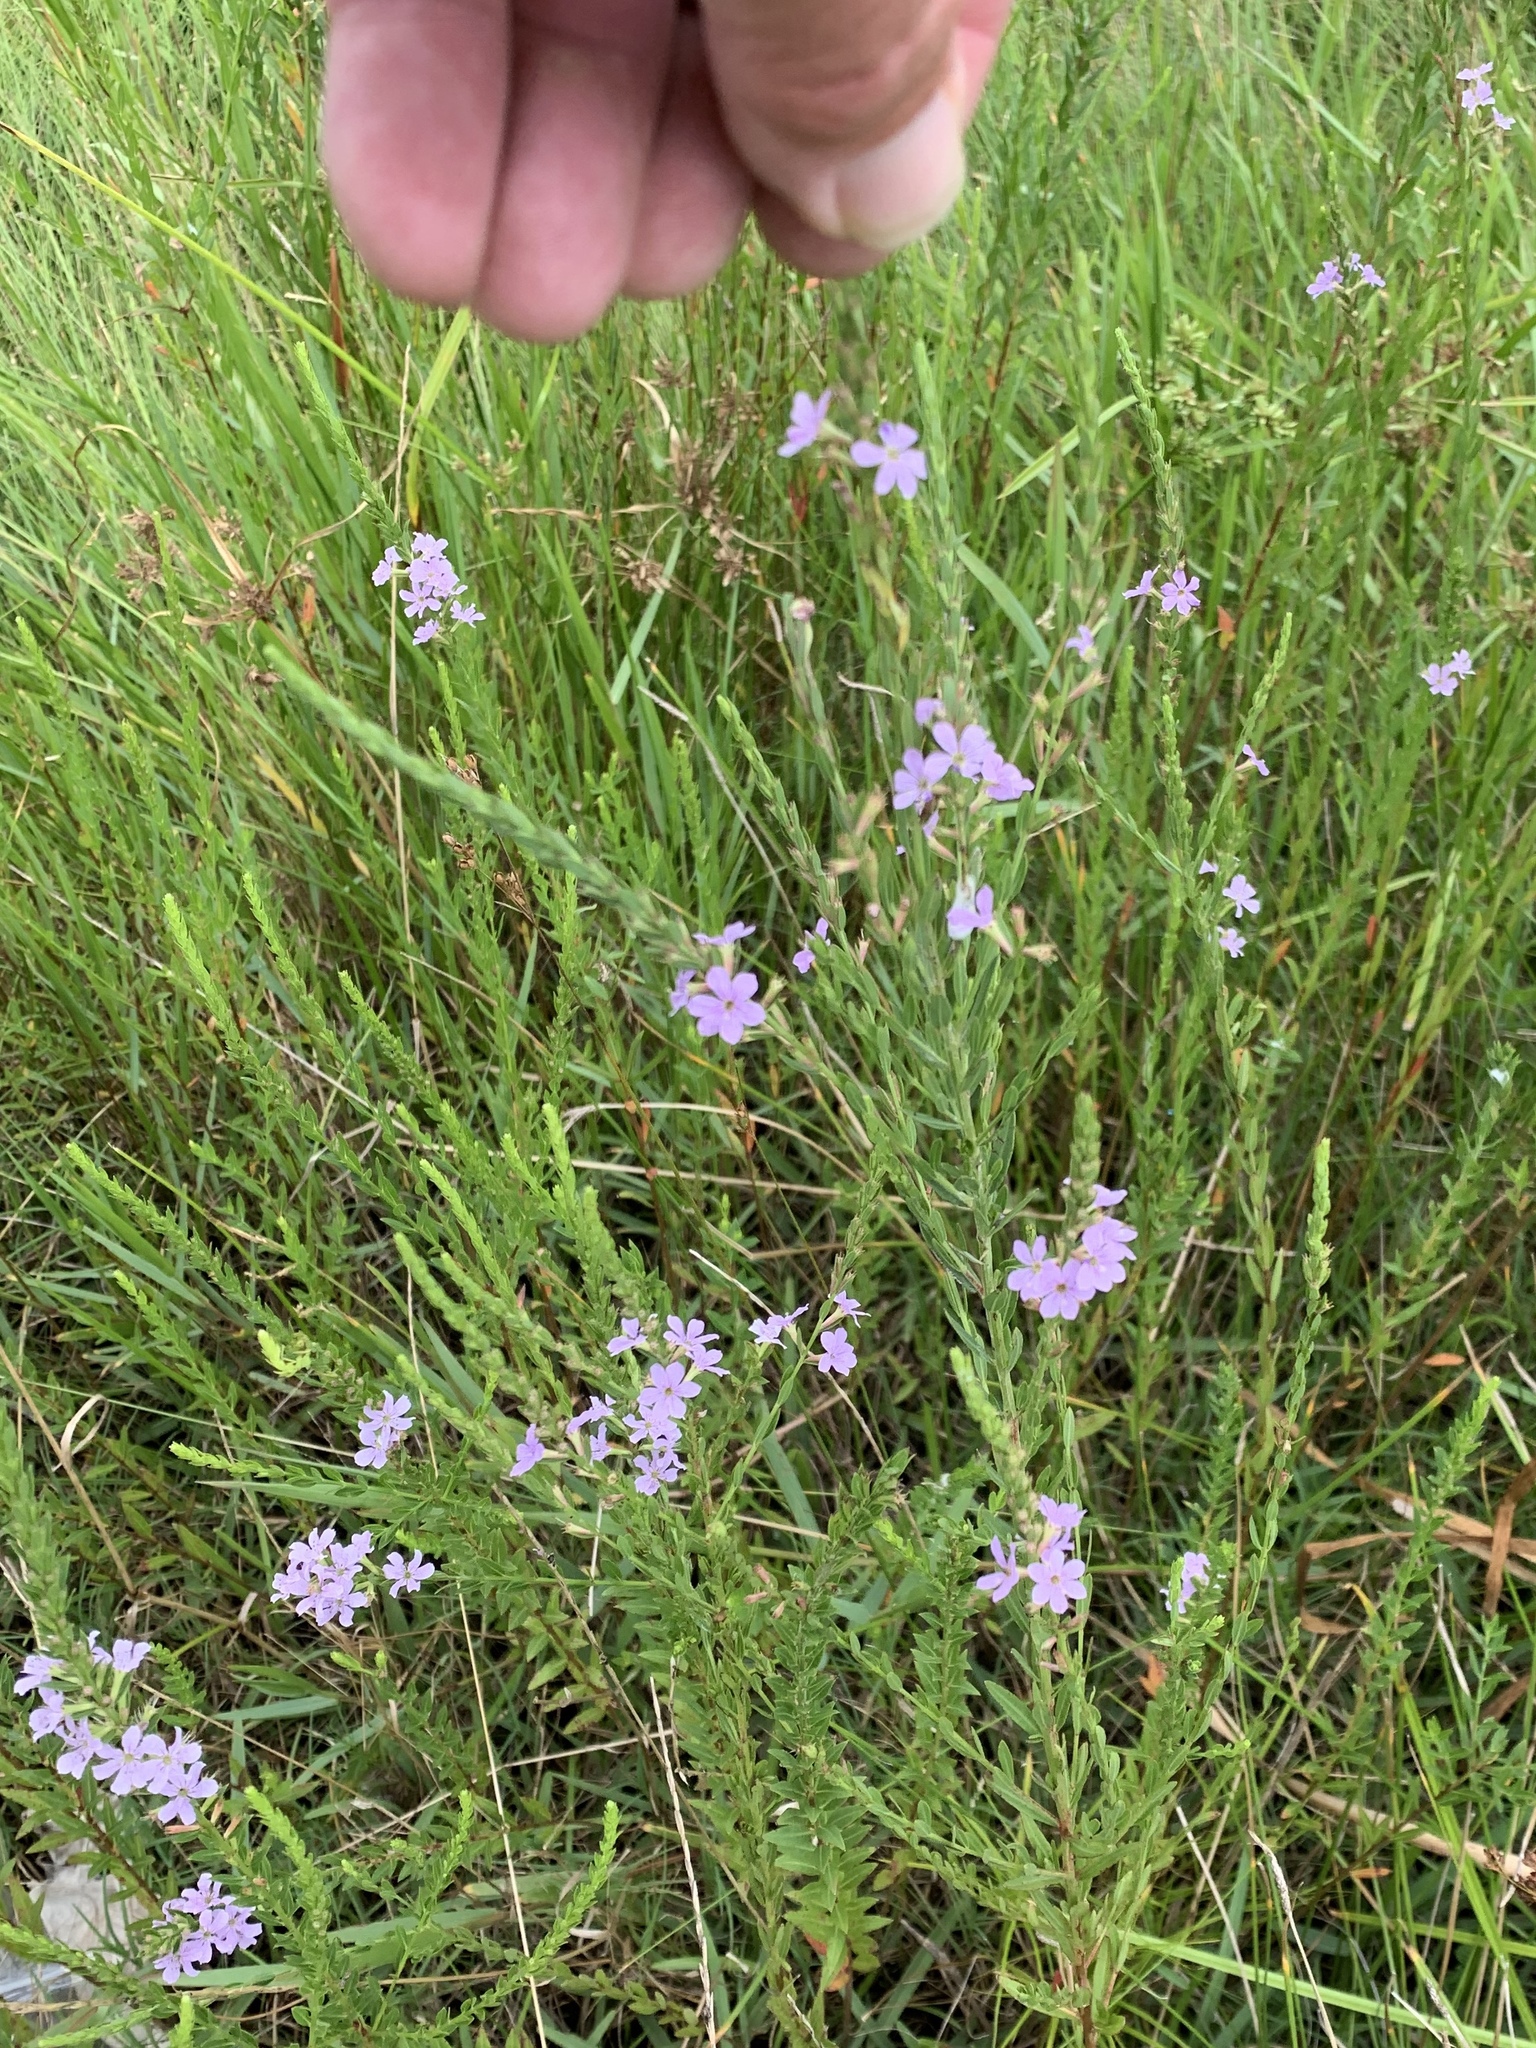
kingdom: Plantae
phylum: Tracheophyta
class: Magnoliopsida
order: Myrtales
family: Lythraceae
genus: Lythrum
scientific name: Lythrum alatum
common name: Winged loosestrife
